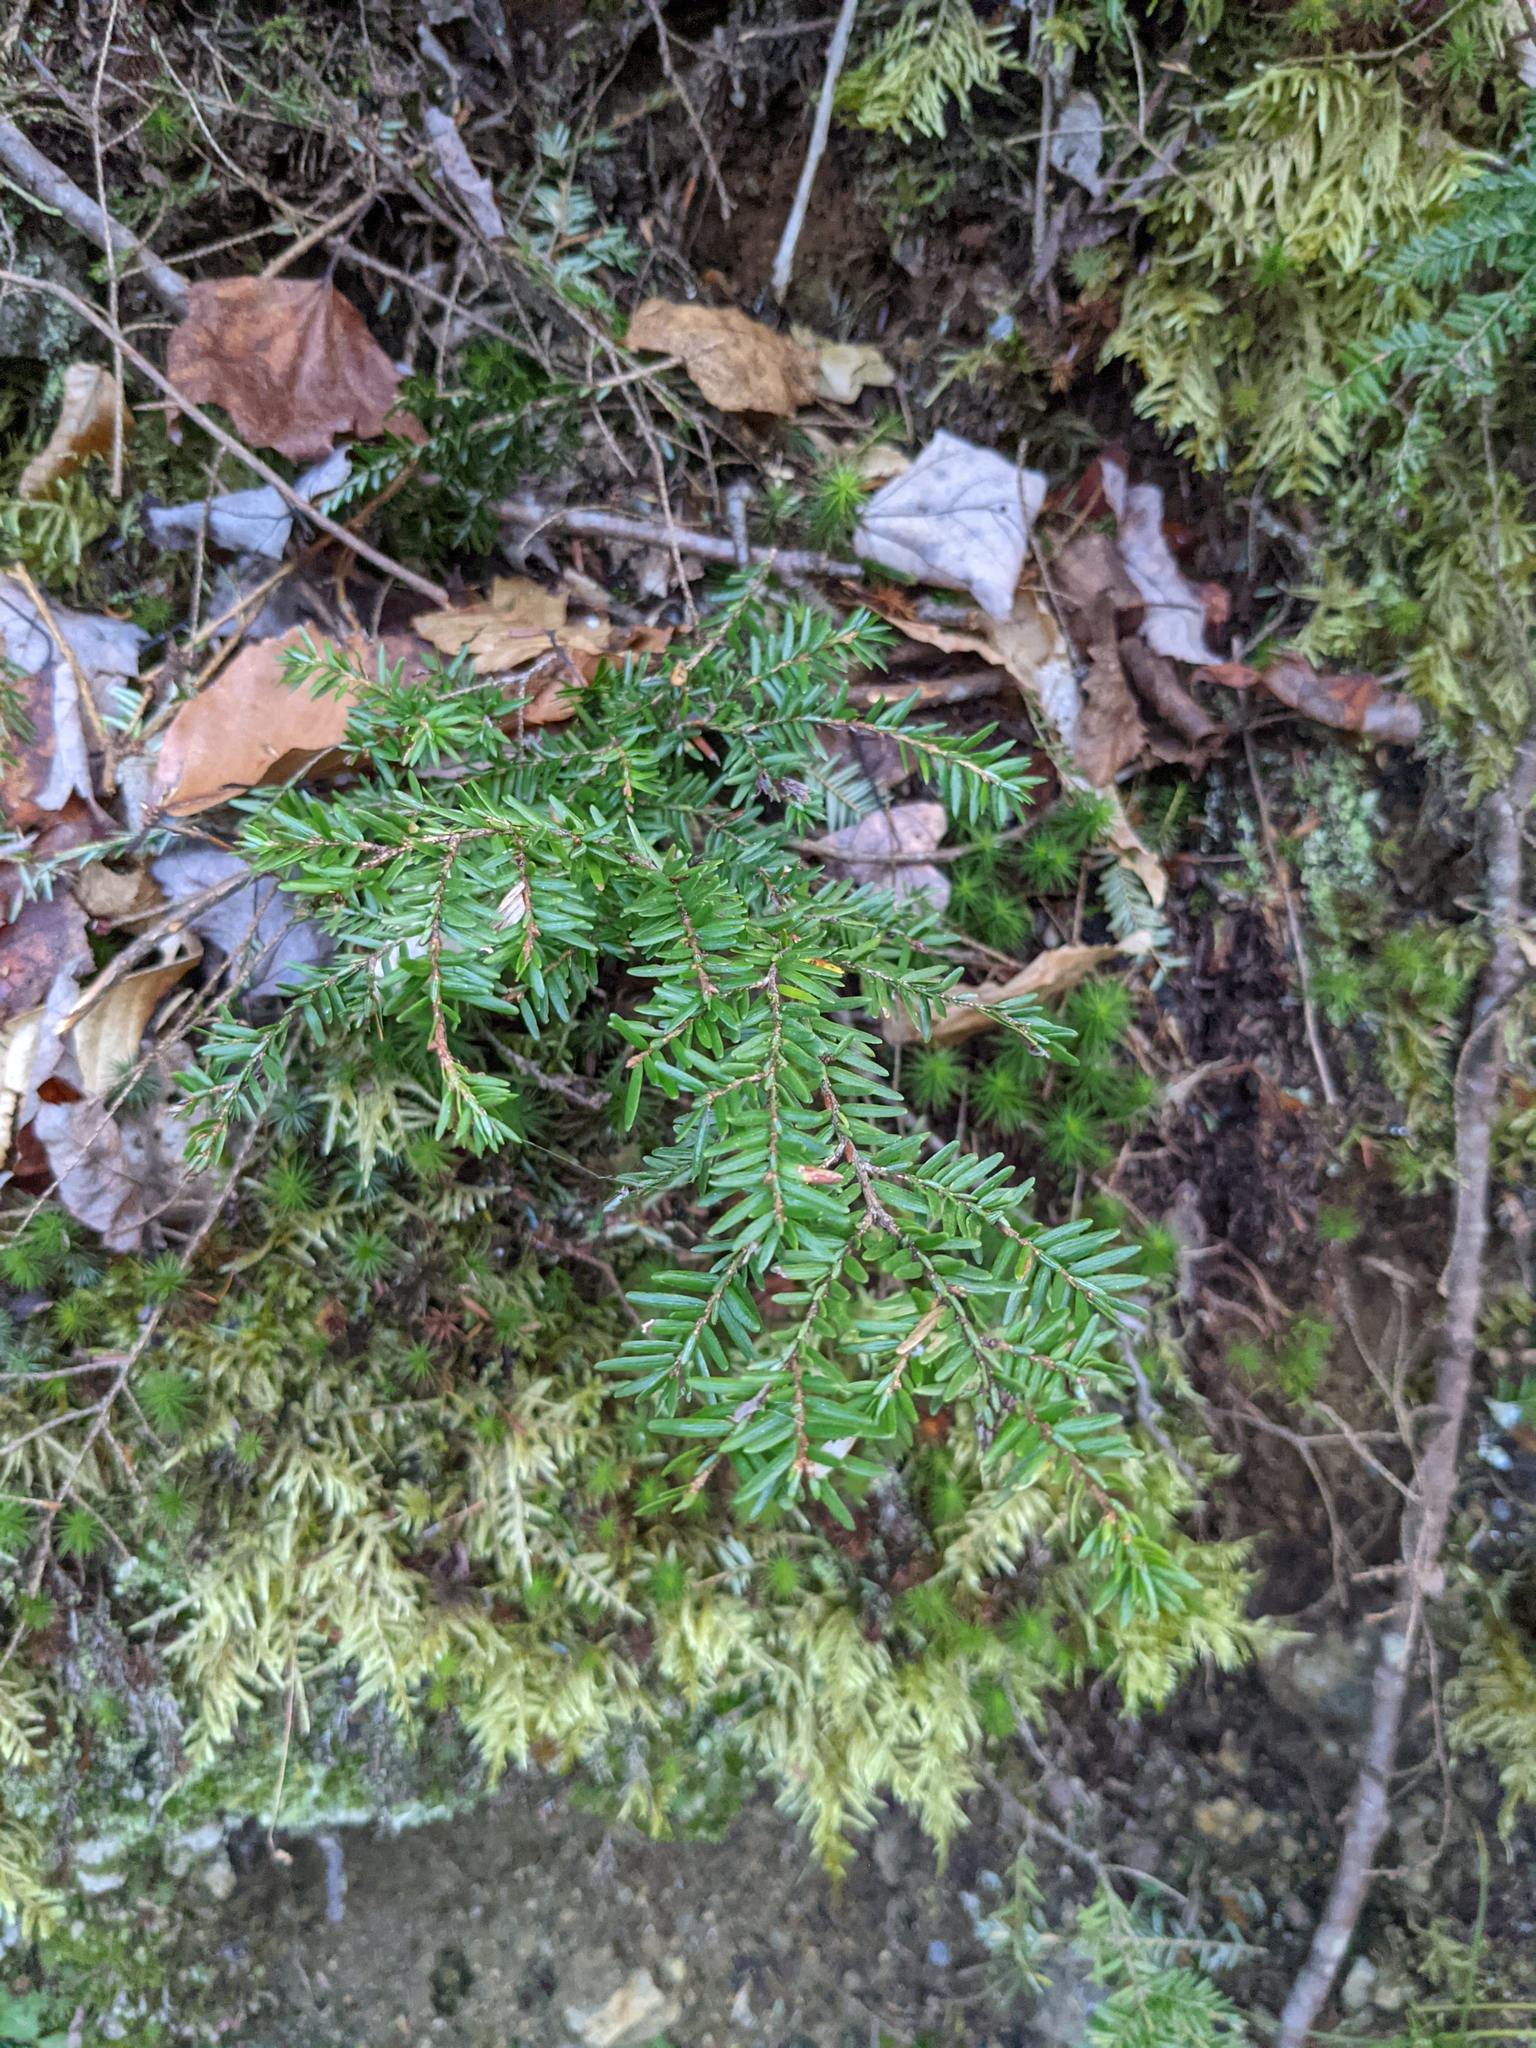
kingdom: Plantae
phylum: Tracheophyta
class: Pinopsida
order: Pinales
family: Pinaceae
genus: Tsuga
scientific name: Tsuga canadensis
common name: Eastern hemlock
